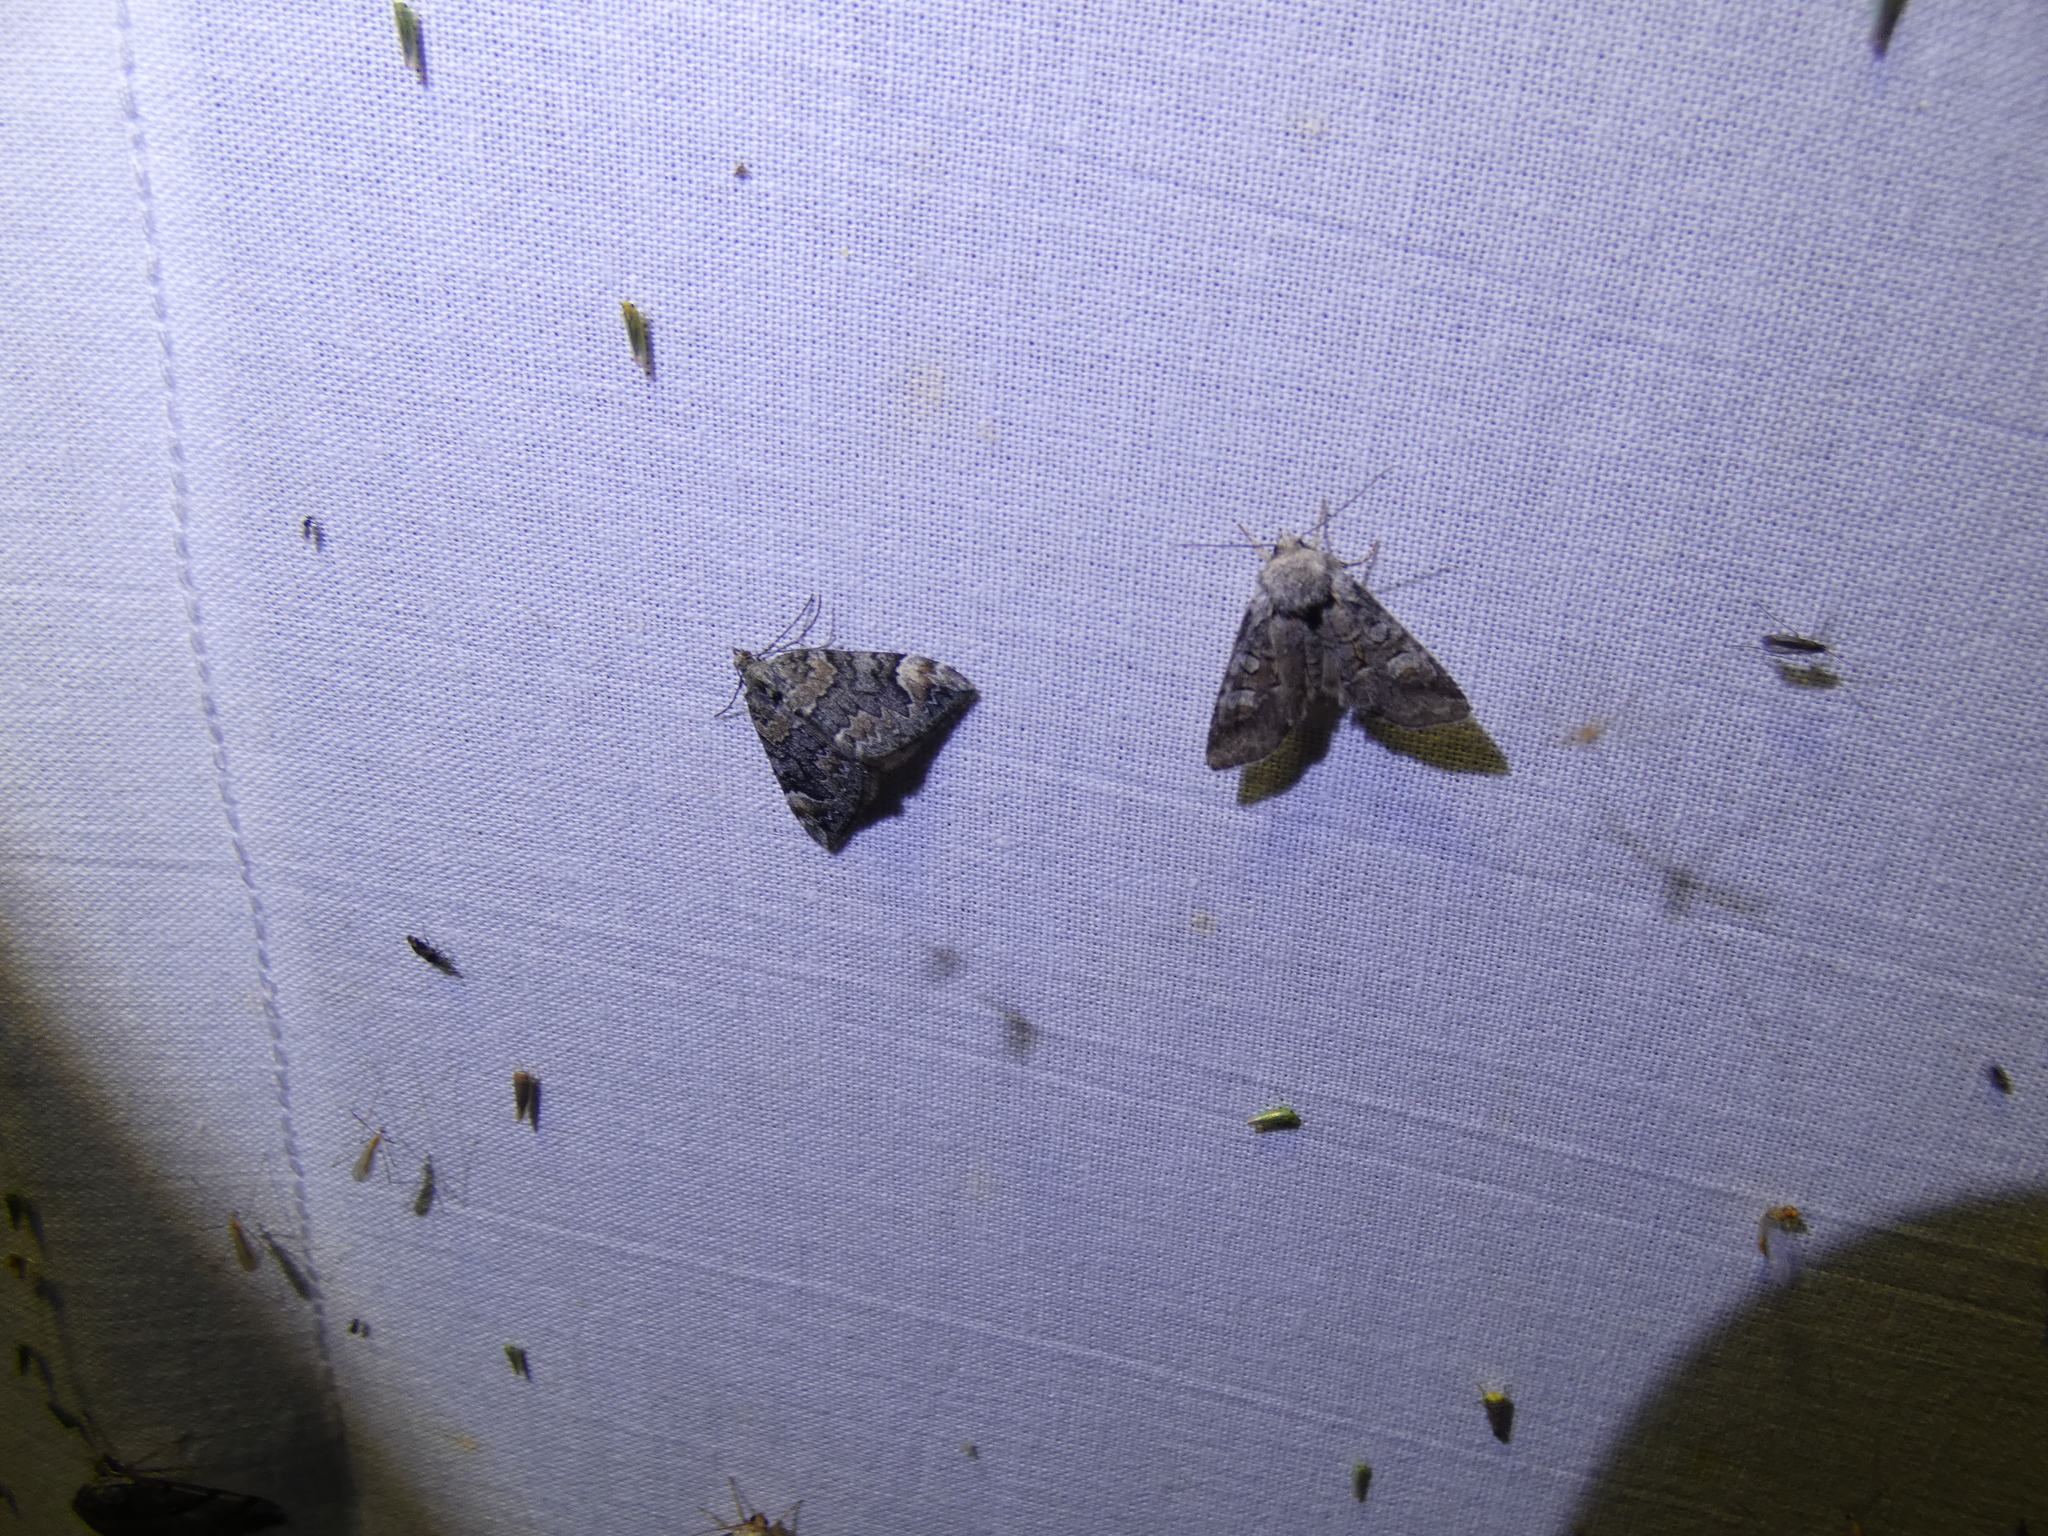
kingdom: Animalia
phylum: Arthropoda
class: Insecta
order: Lepidoptera
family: Noctuidae
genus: Brachylomia
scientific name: Brachylomia viminalis
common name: Minor shoulder-knot
